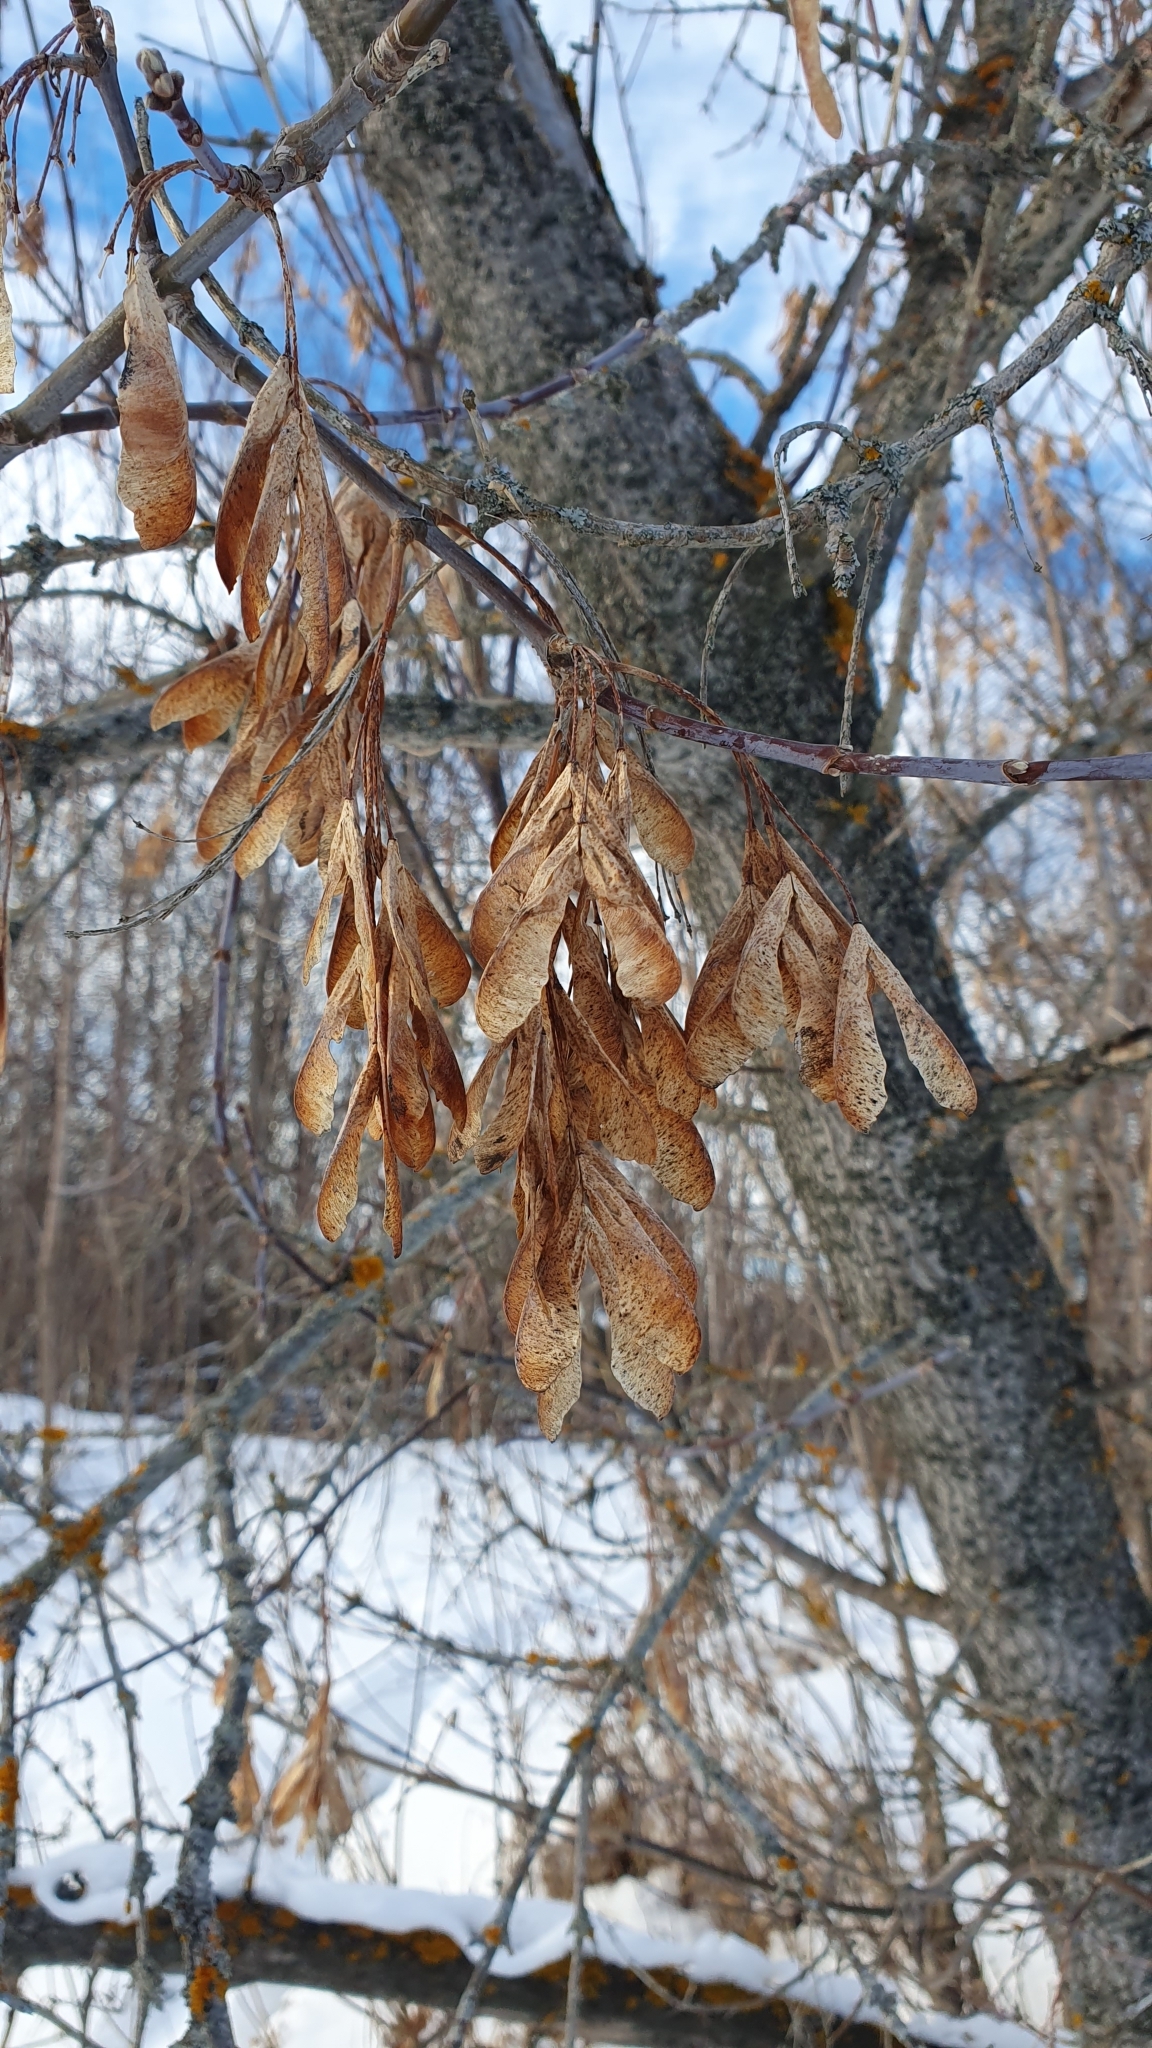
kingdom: Plantae
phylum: Tracheophyta
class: Magnoliopsida
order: Sapindales
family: Sapindaceae
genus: Acer
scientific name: Acer negundo
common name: Ashleaf maple
